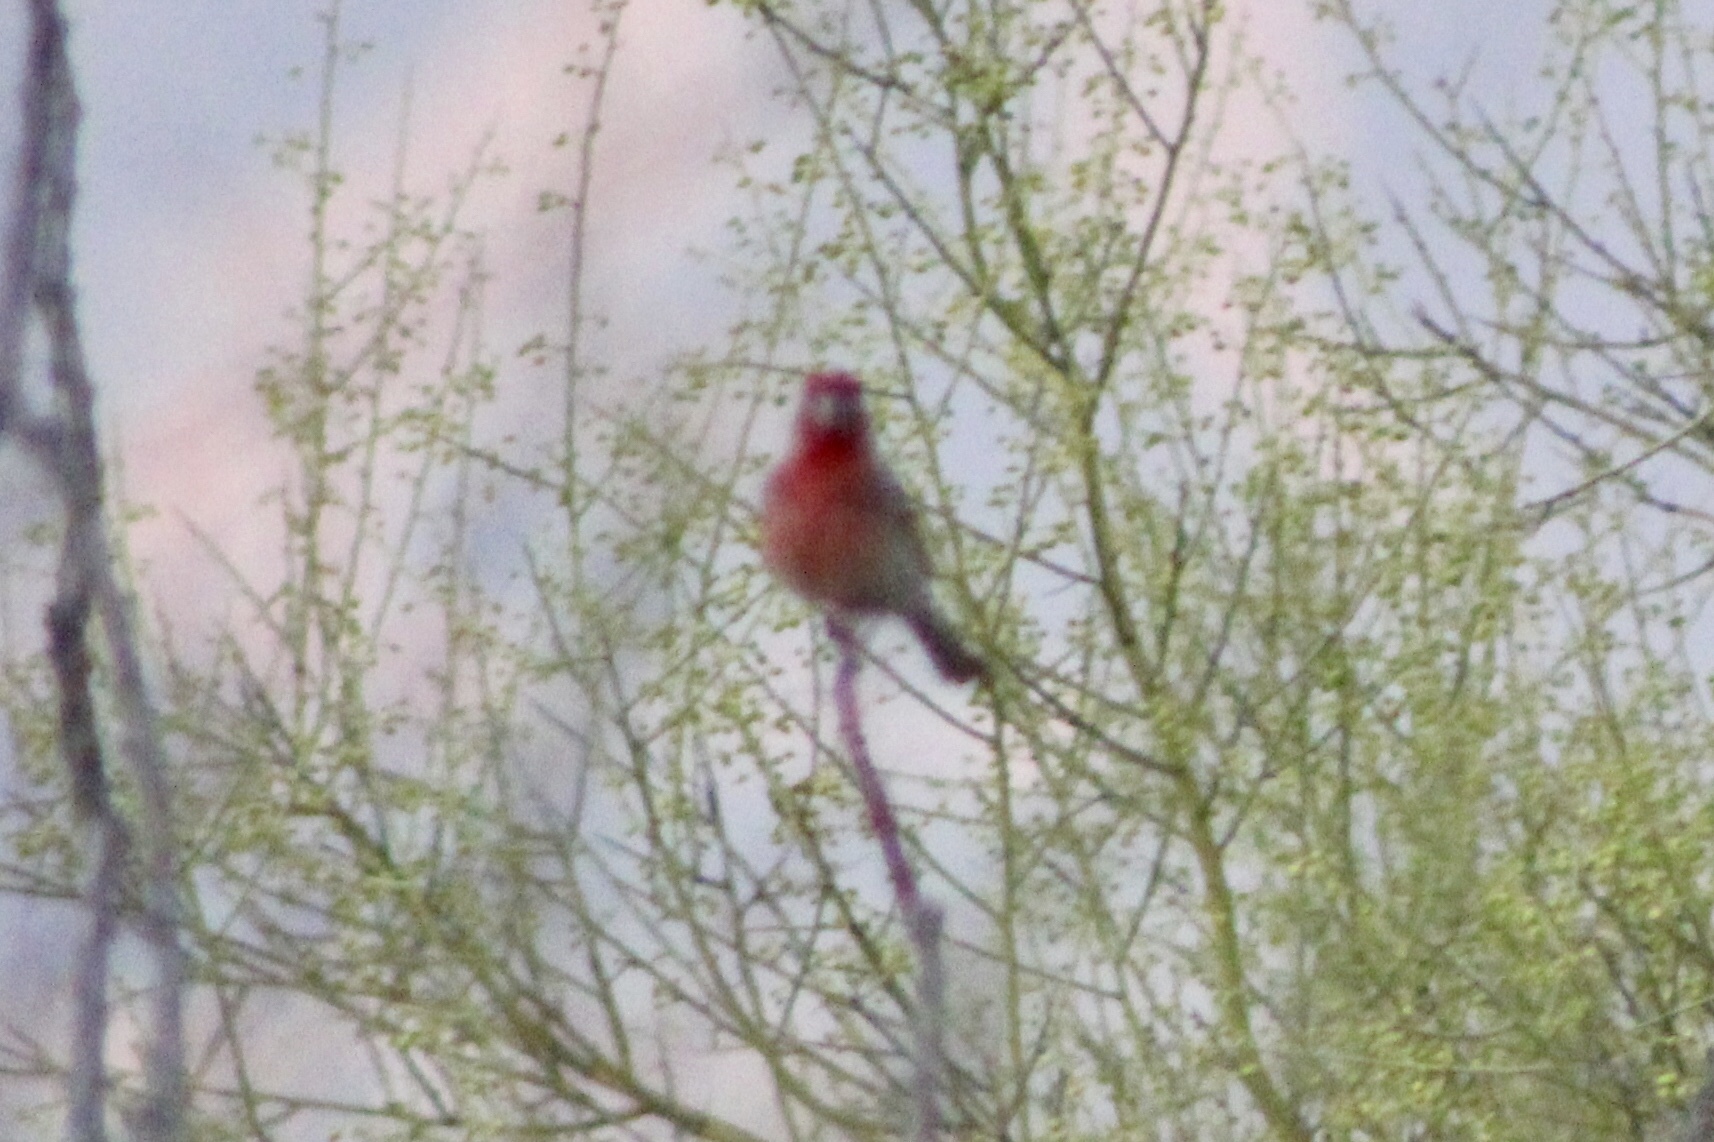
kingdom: Animalia
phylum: Chordata
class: Aves
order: Passeriformes
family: Fringillidae
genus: Haemorhous
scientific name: Haemorhous mexicanus
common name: House finch
